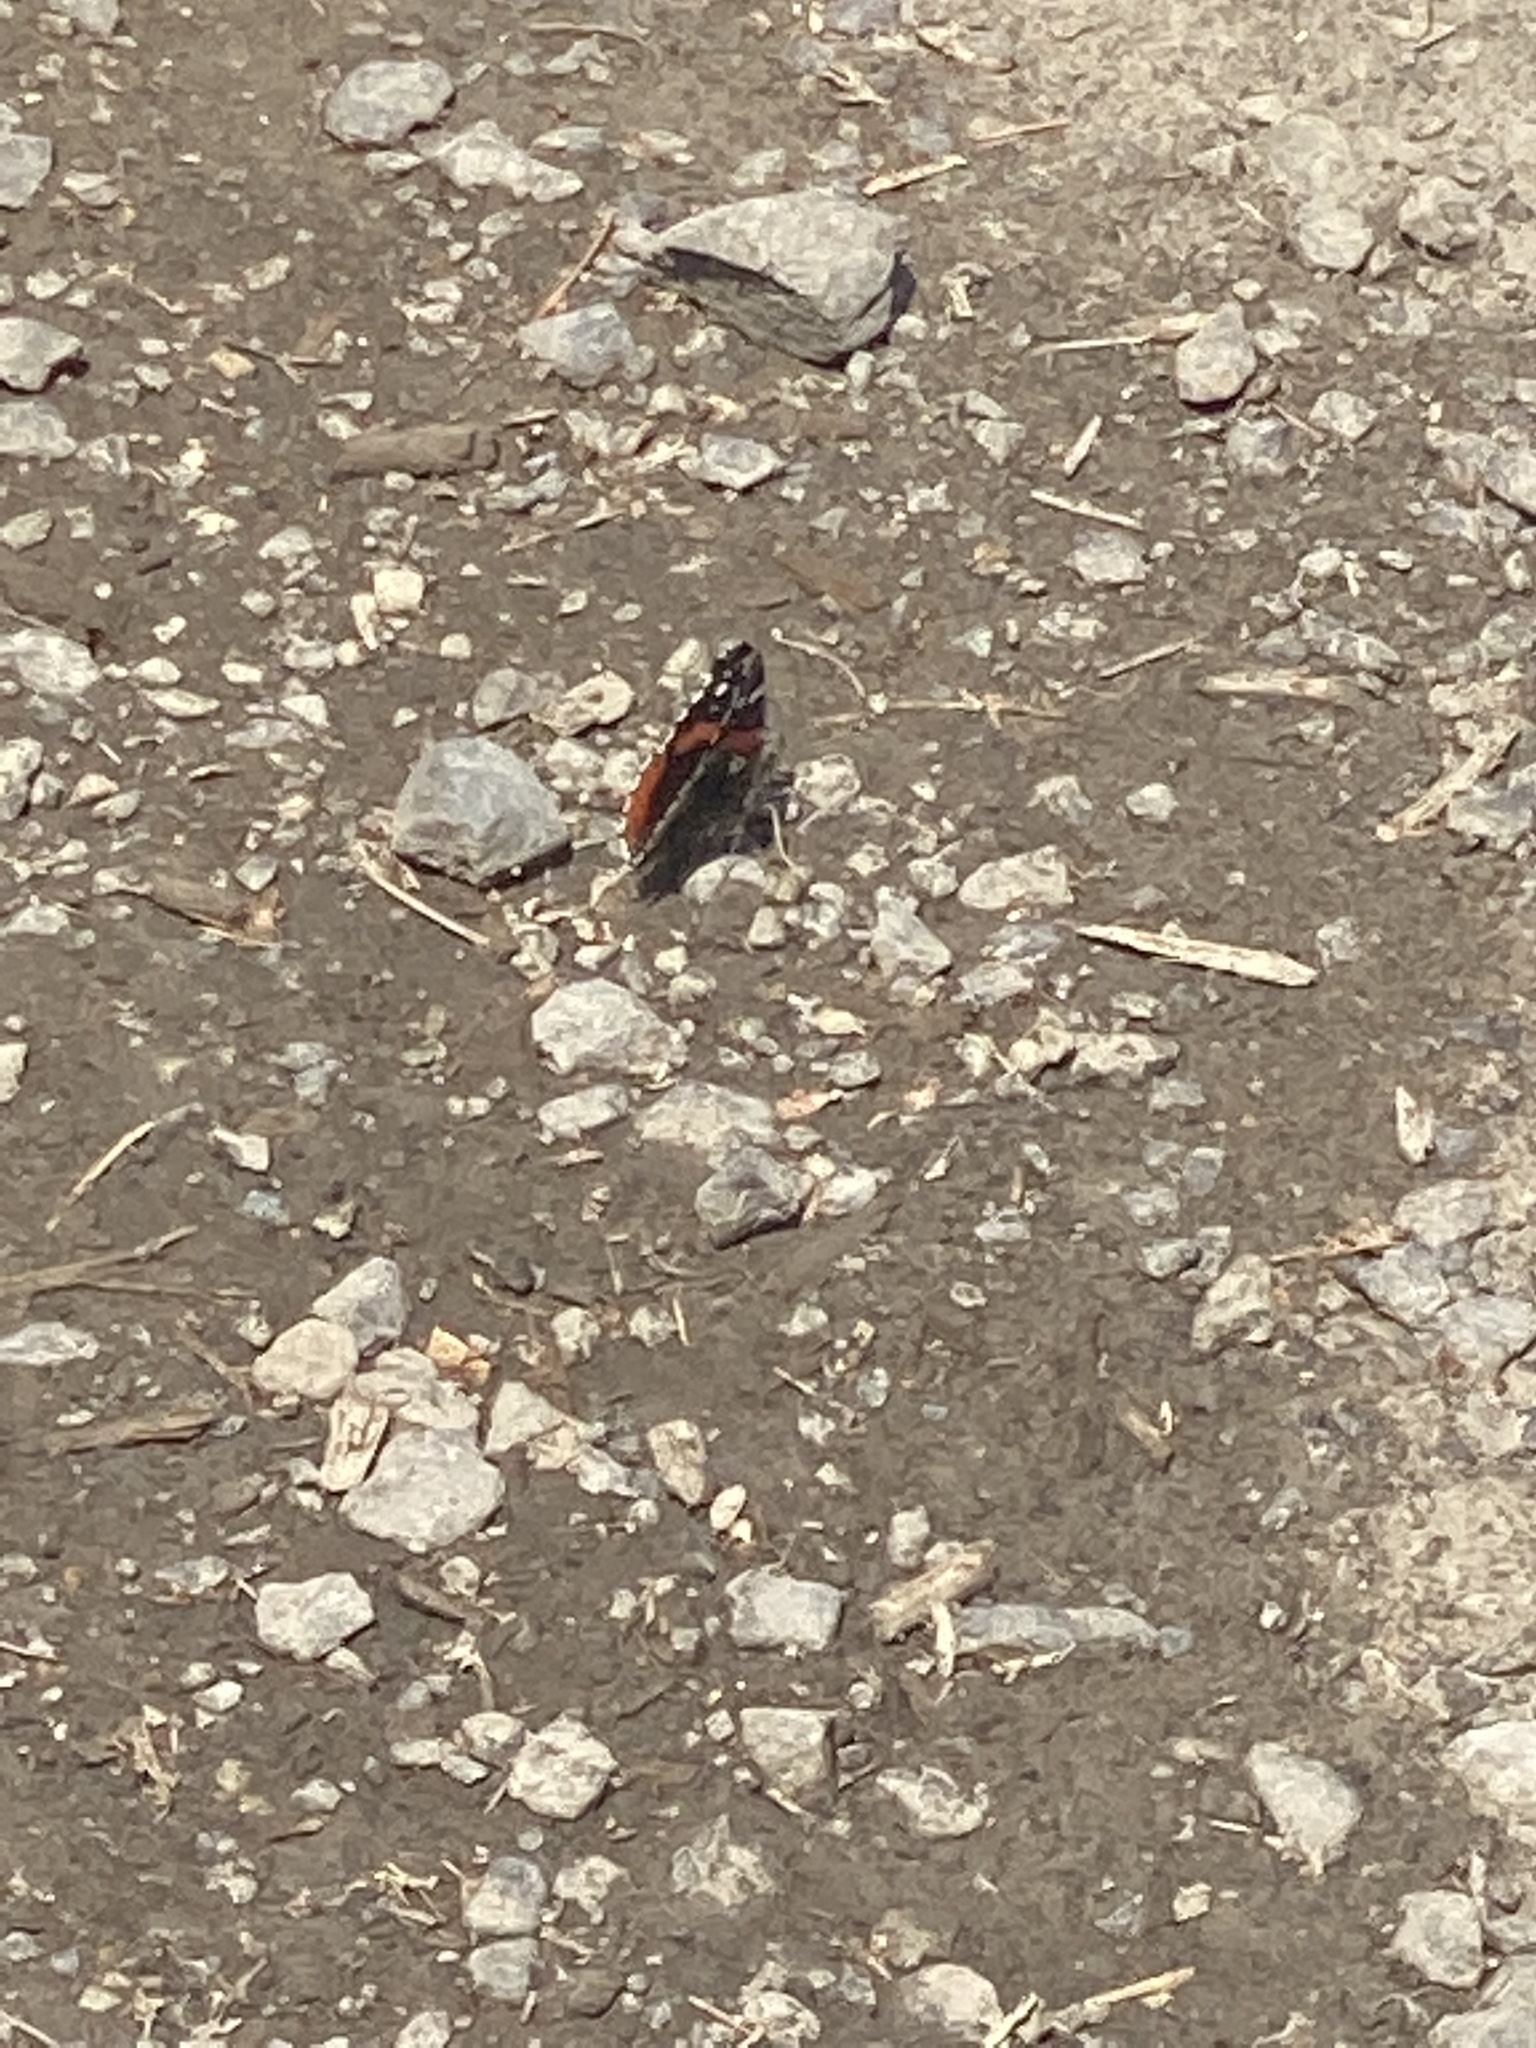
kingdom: Animalia
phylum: Arthropoda
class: Insecta
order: Lepidoptera
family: Nymphalidae
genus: Vanessa
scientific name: Vanessa atalanta
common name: Red admiral
